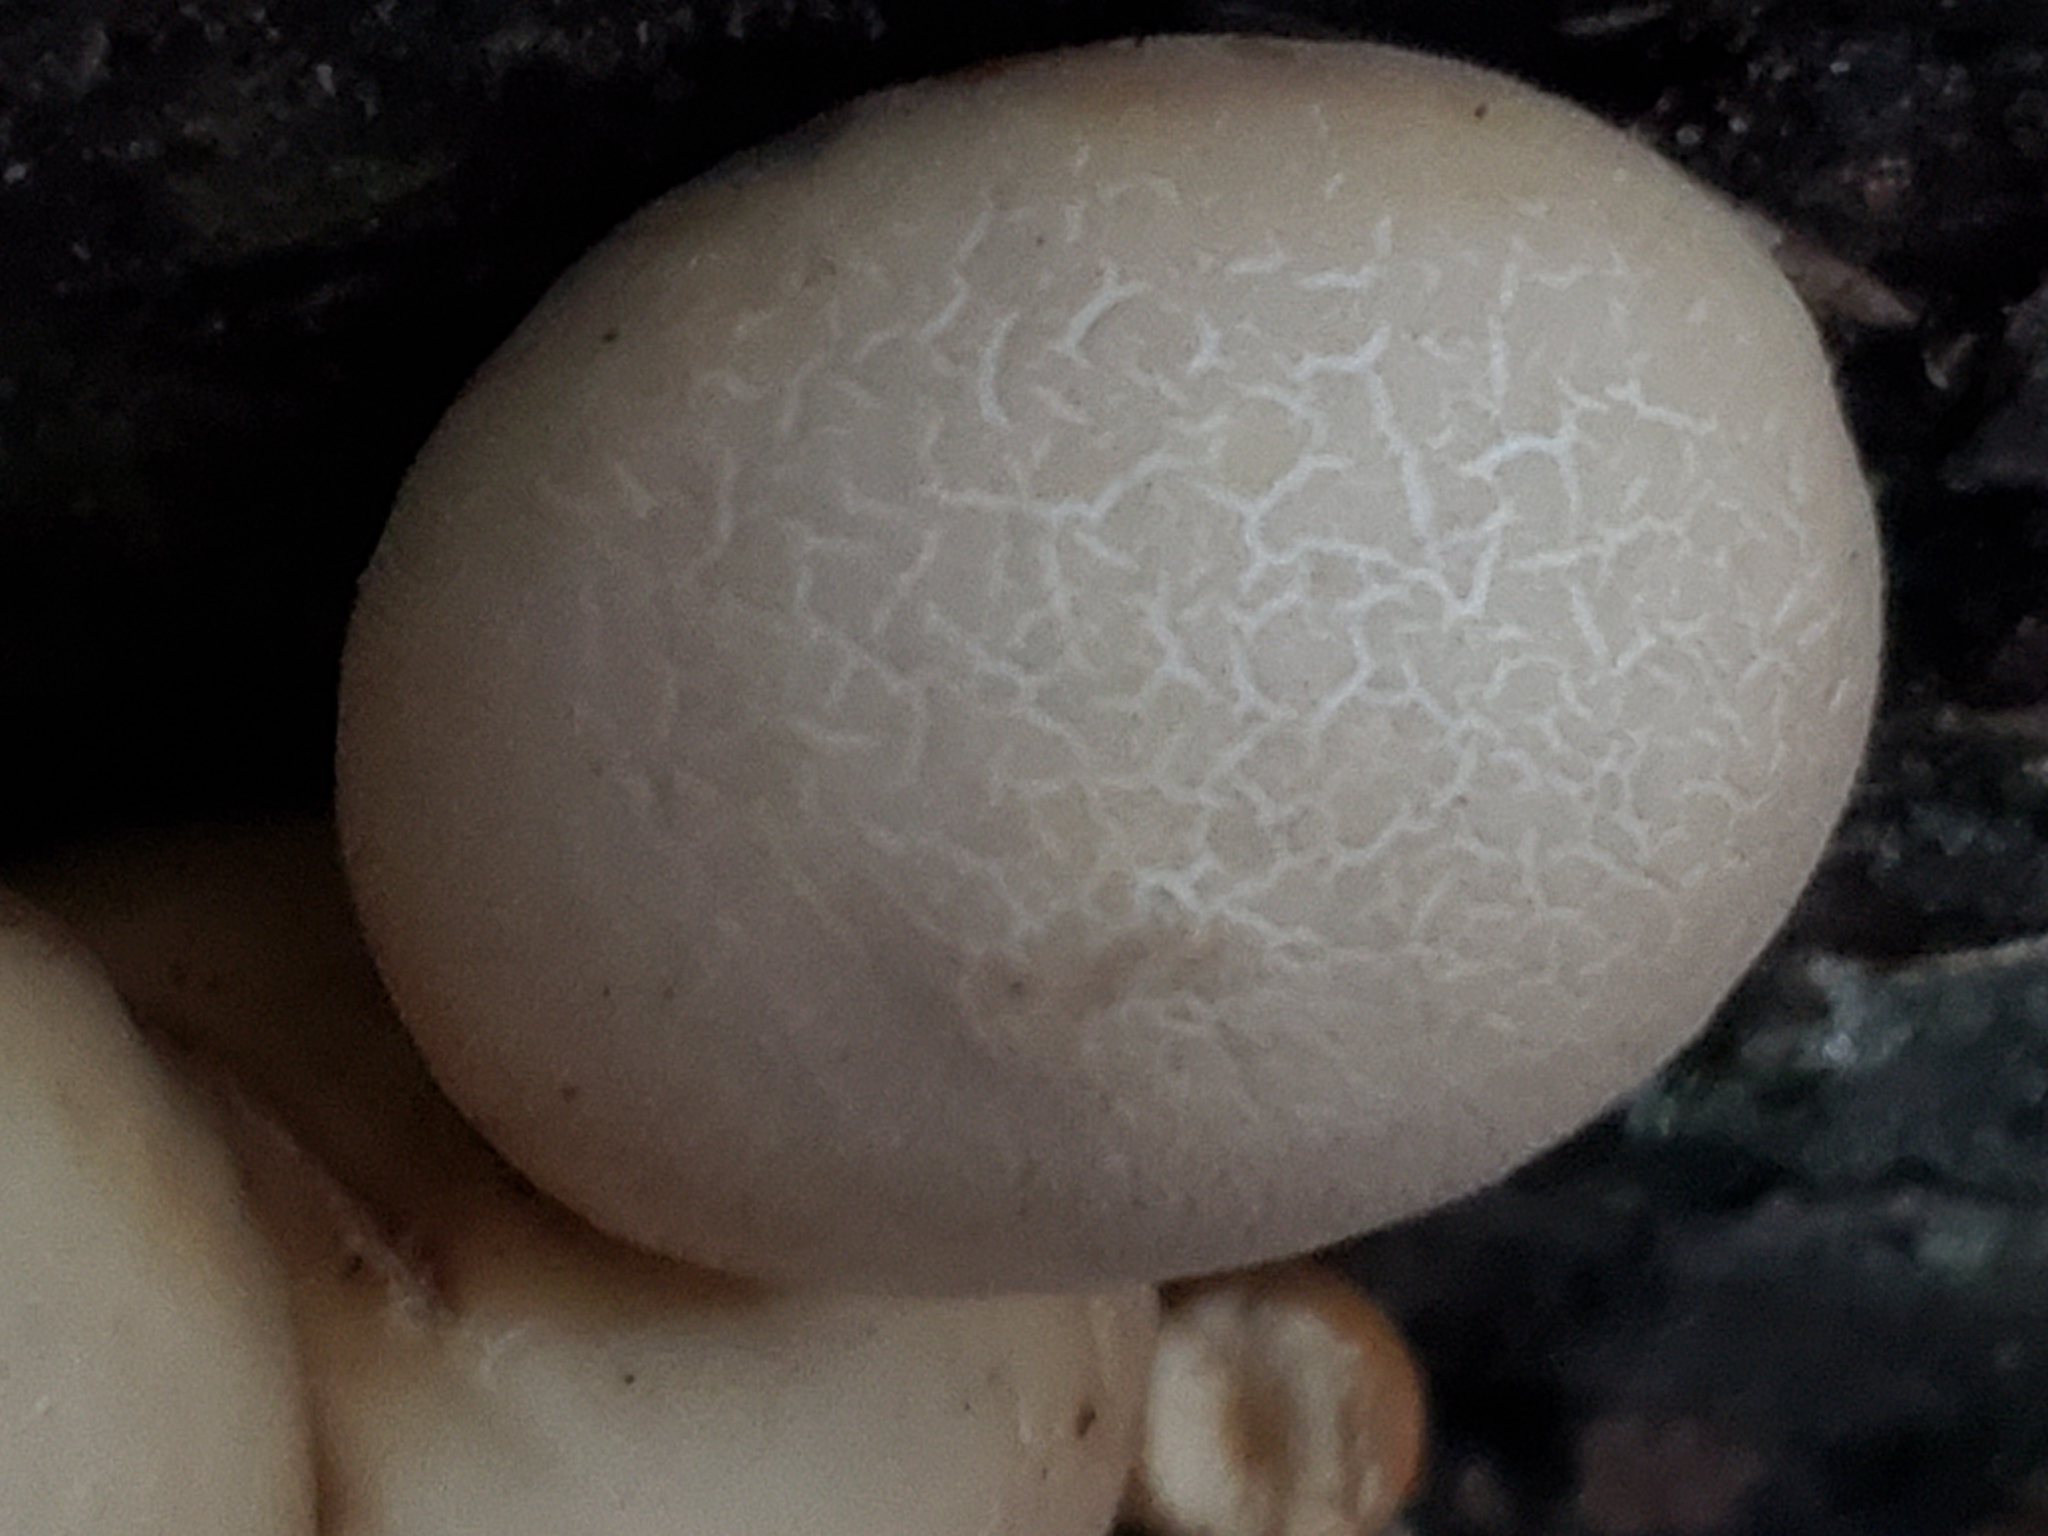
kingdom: Fungi
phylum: Basidiomycota
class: Agaricomycetes
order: Agaricales
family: Lycoperdaceae
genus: Apioperdon
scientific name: Apioperdon pyriforme
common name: Pear-shaped puffball
